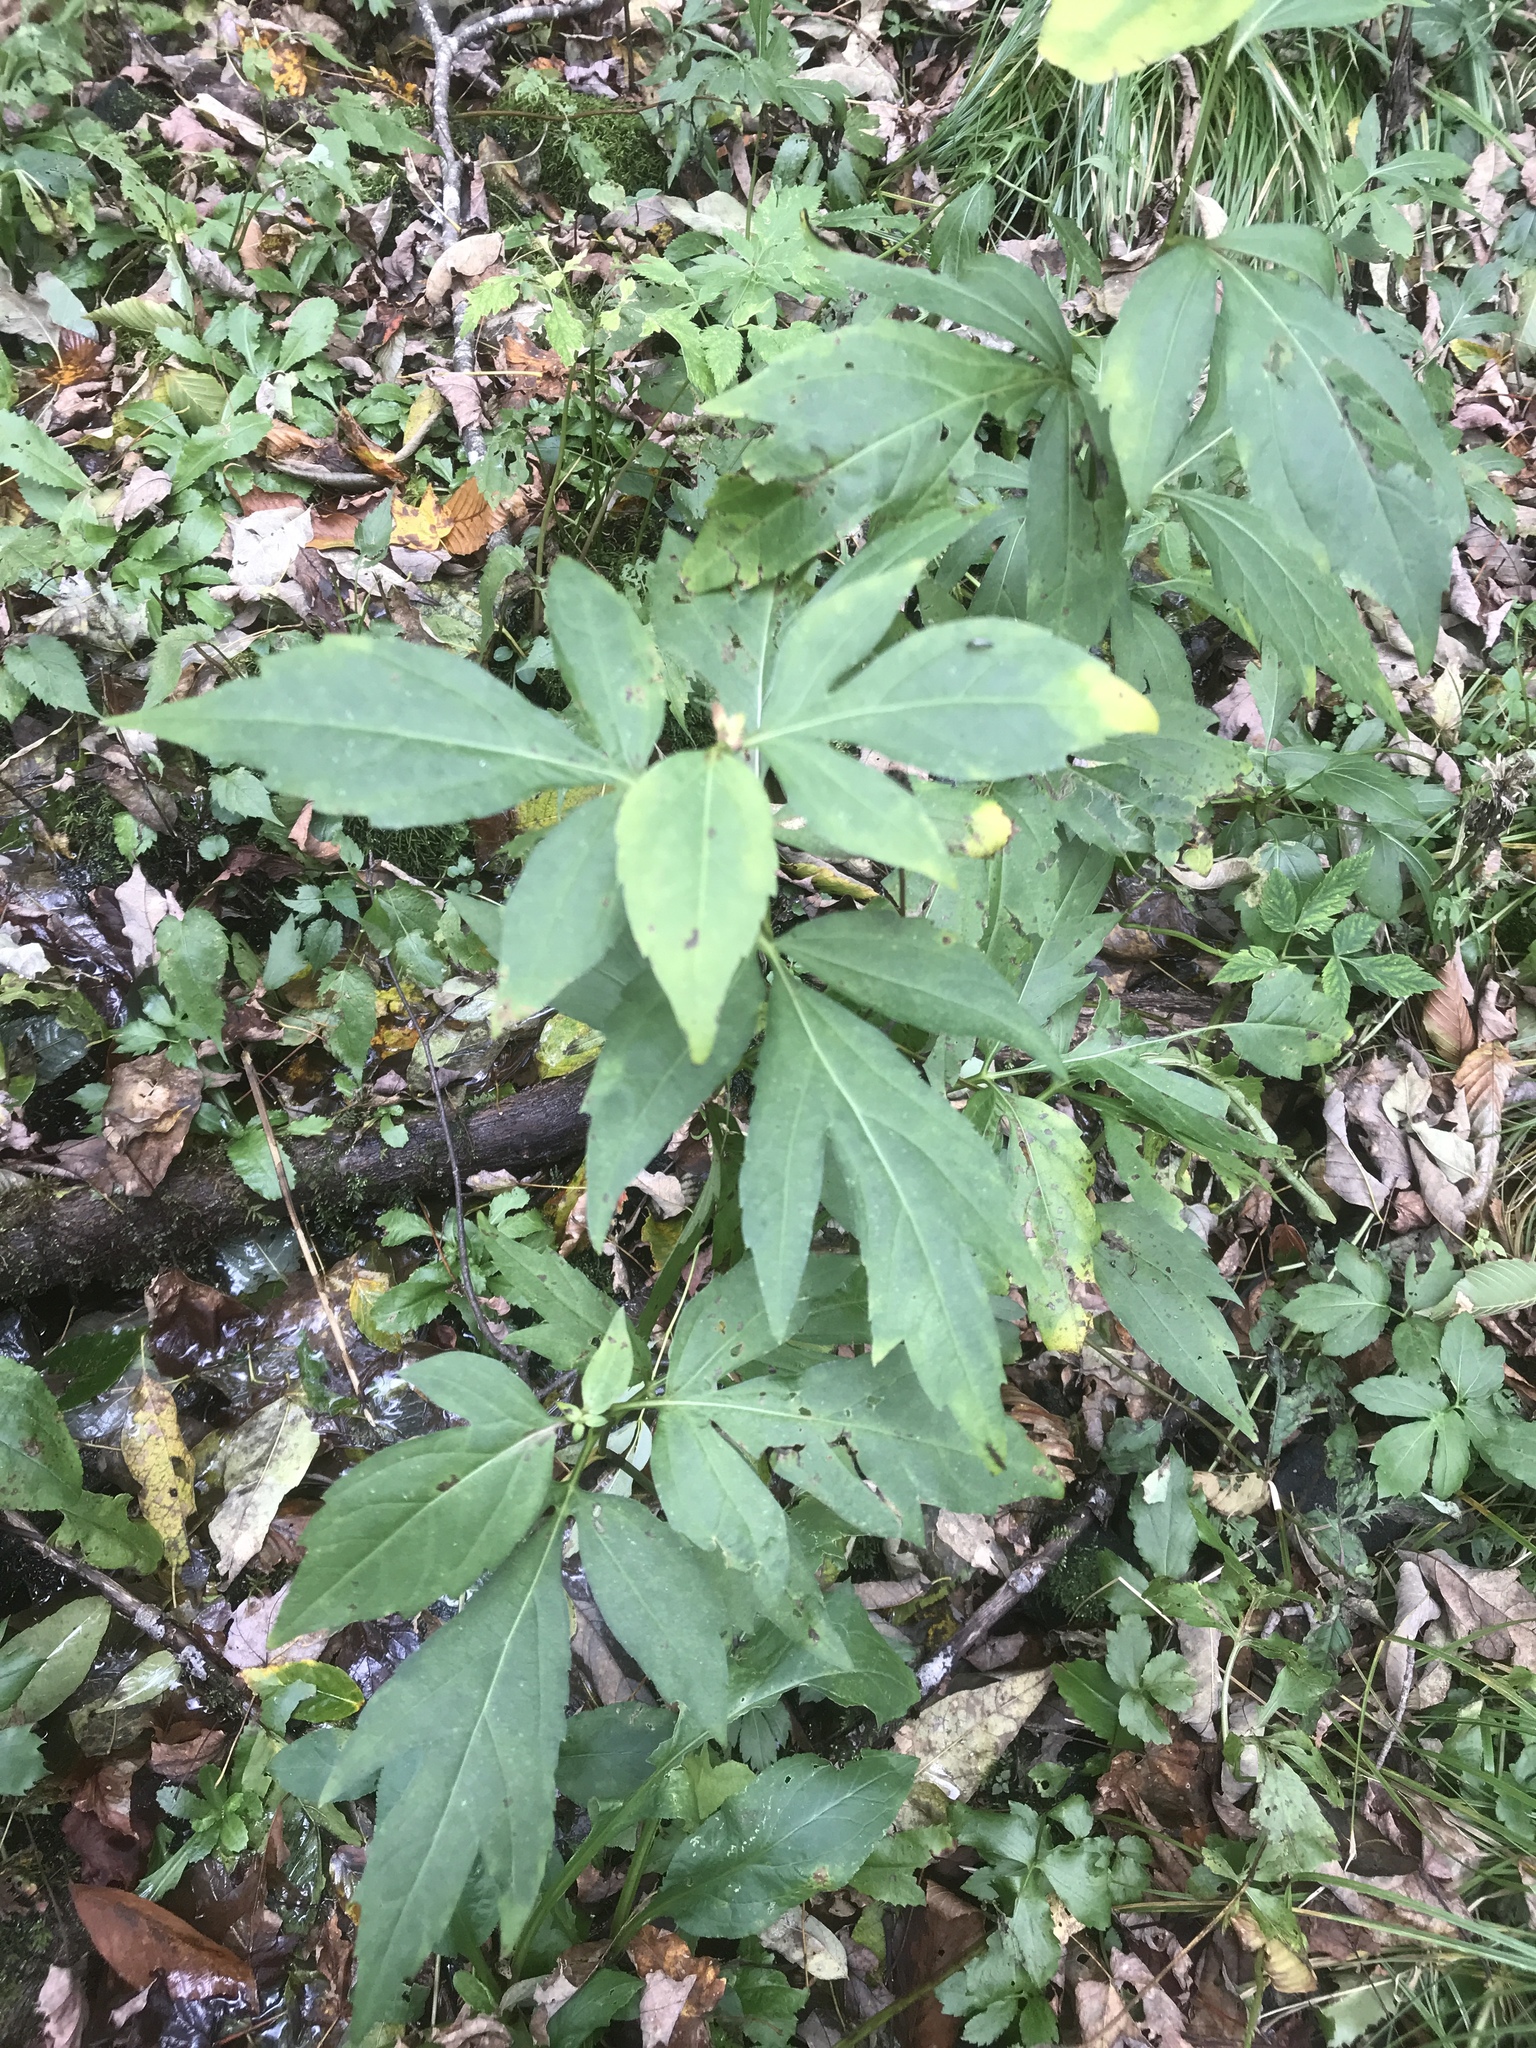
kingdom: Plantae
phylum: Tracheophyta
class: Magnoliopsida
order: Asterales
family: Asteraceae
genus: Rudbeckia
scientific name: Rudbeckia laciniata
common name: Coneflower
